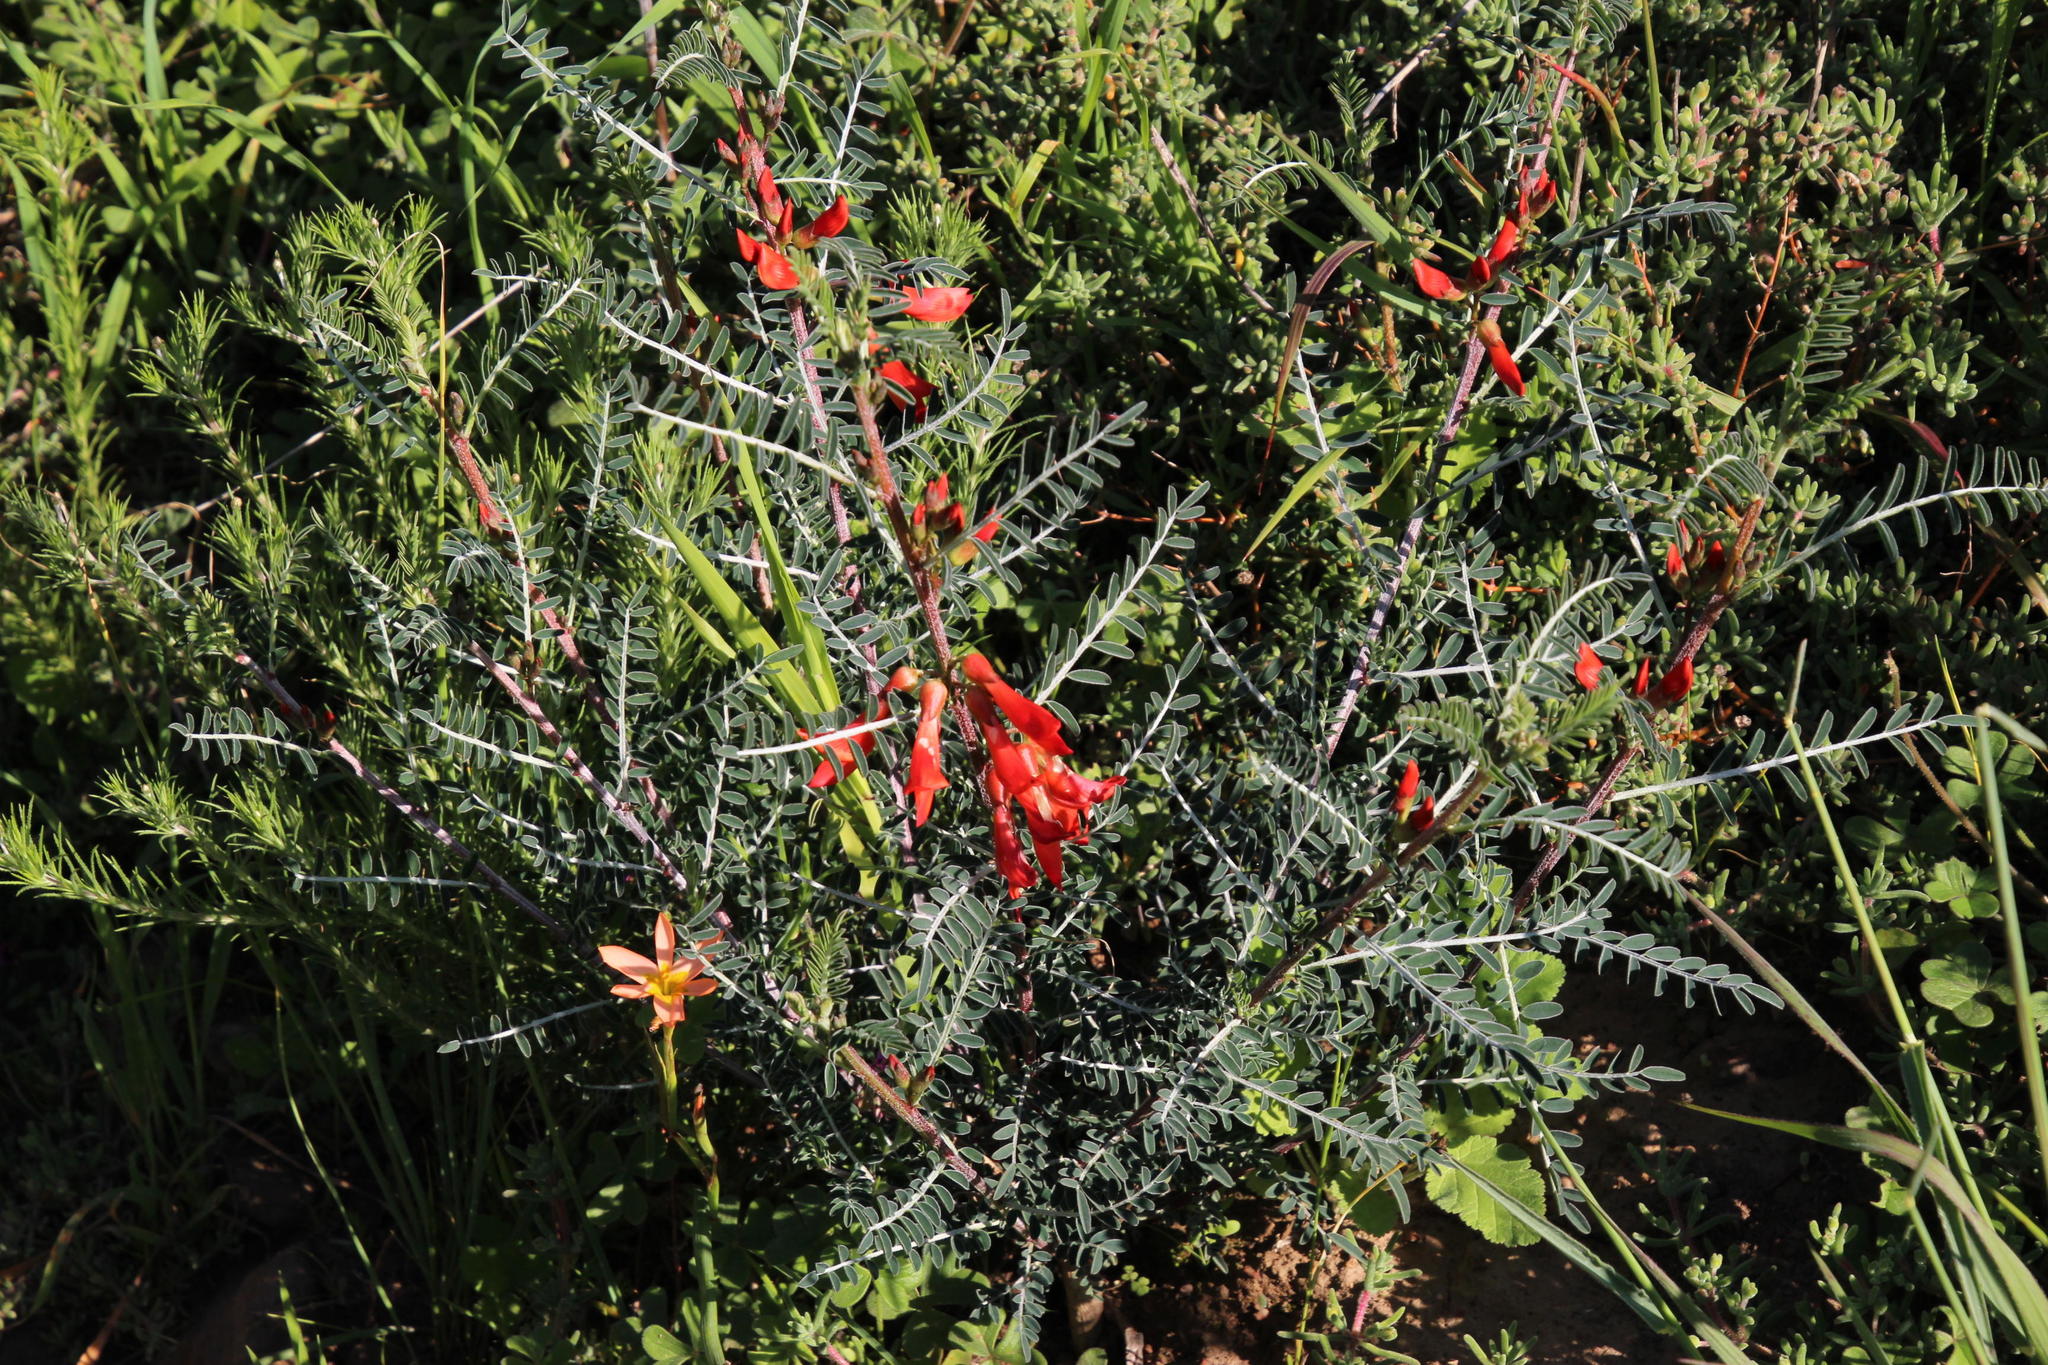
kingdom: Plantae
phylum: Tracheophyta
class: Magnoliopsida
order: Fabales
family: Fabaceae
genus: Lessertia
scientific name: Lessertia frutescens
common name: Balloon-pea
